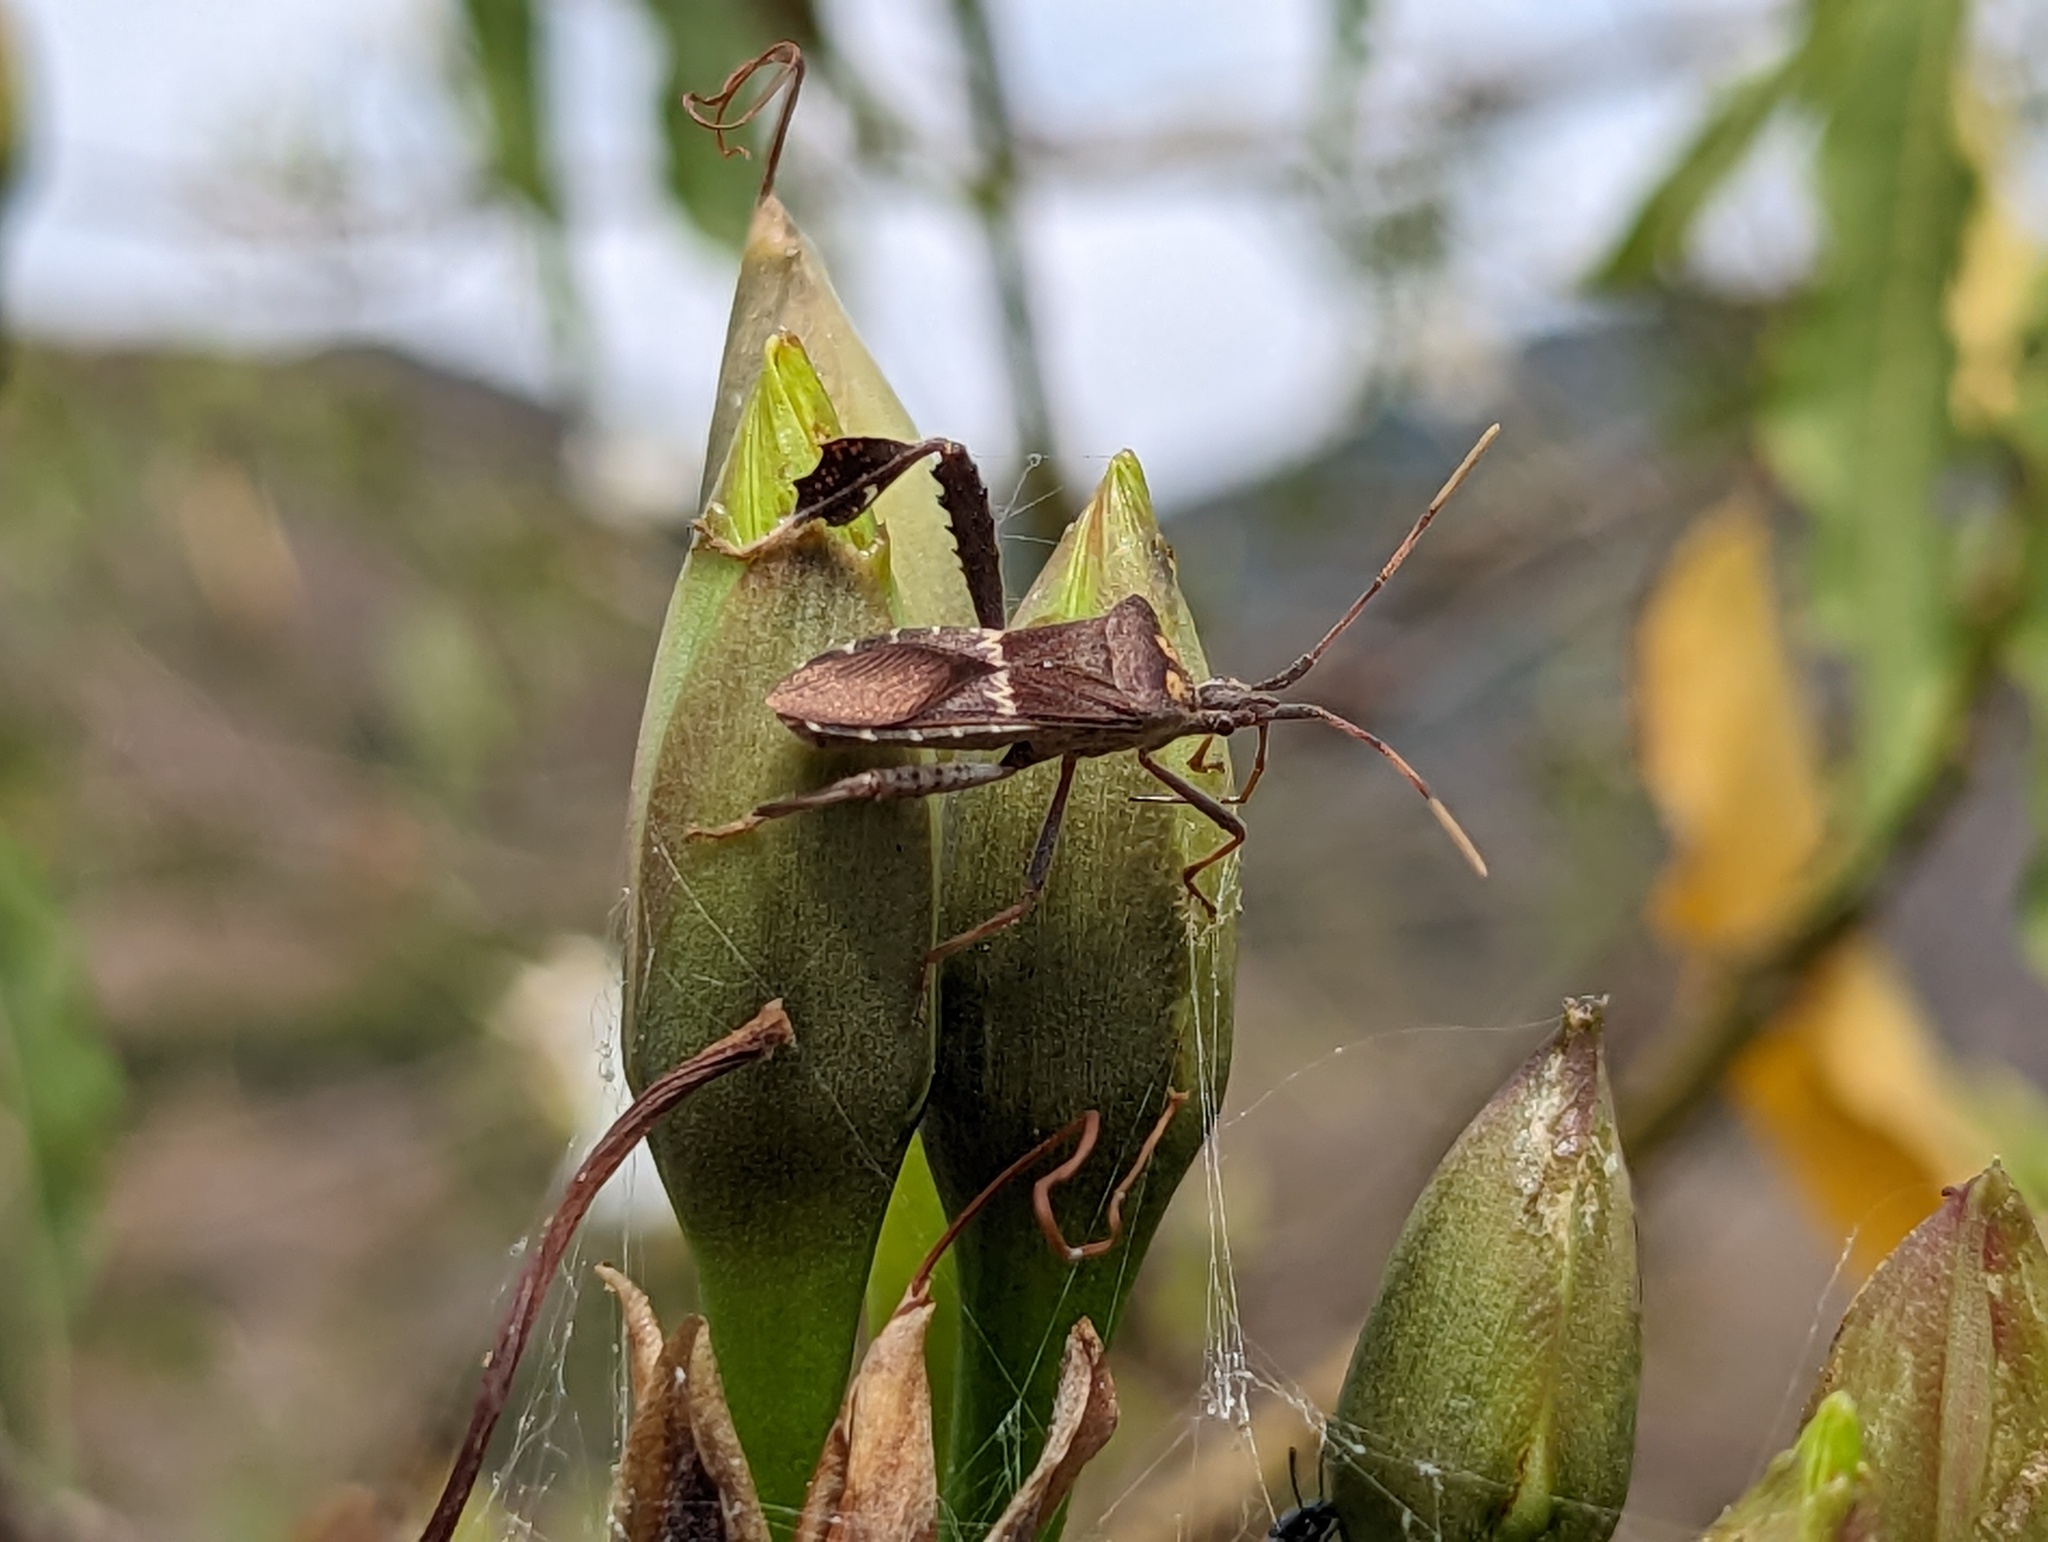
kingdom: Animalia
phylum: Arthropoda
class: Insecta
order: Hemiptera
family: Coreidae
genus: Leptoglossus
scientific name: Leptoglossus zonatus
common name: Large-legged bug
